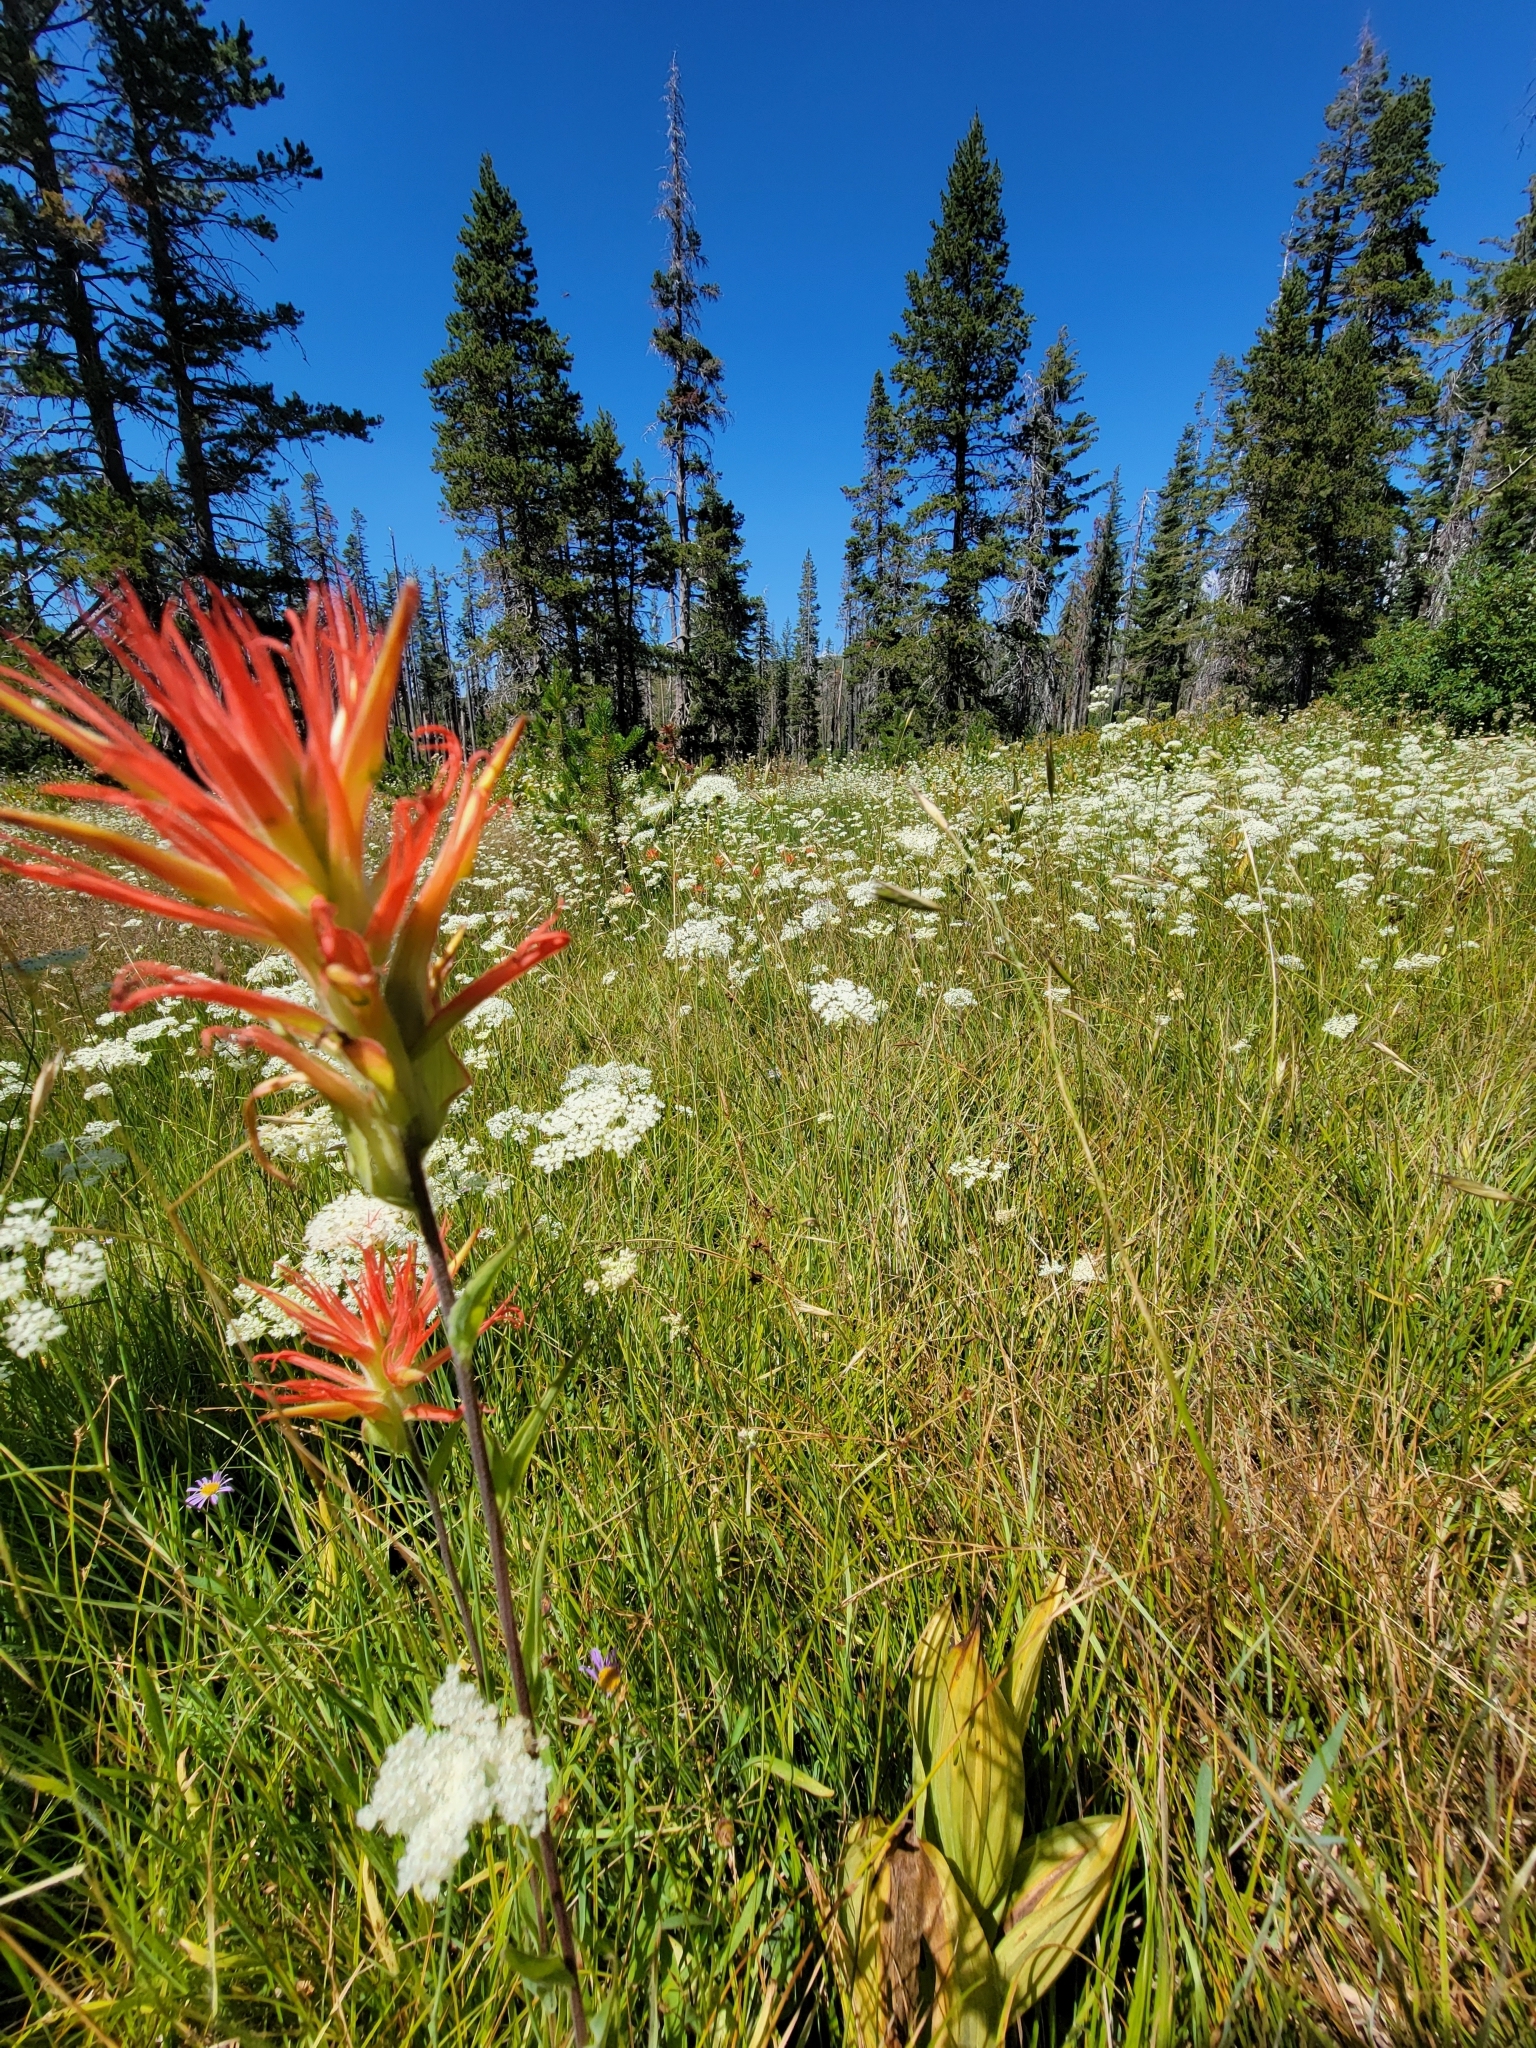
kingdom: Plantae
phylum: Tracheophyta
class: Magnoliopsida
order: Lamiales
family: Orobanchaceae
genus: Castilleja
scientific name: Castilleja miniata
